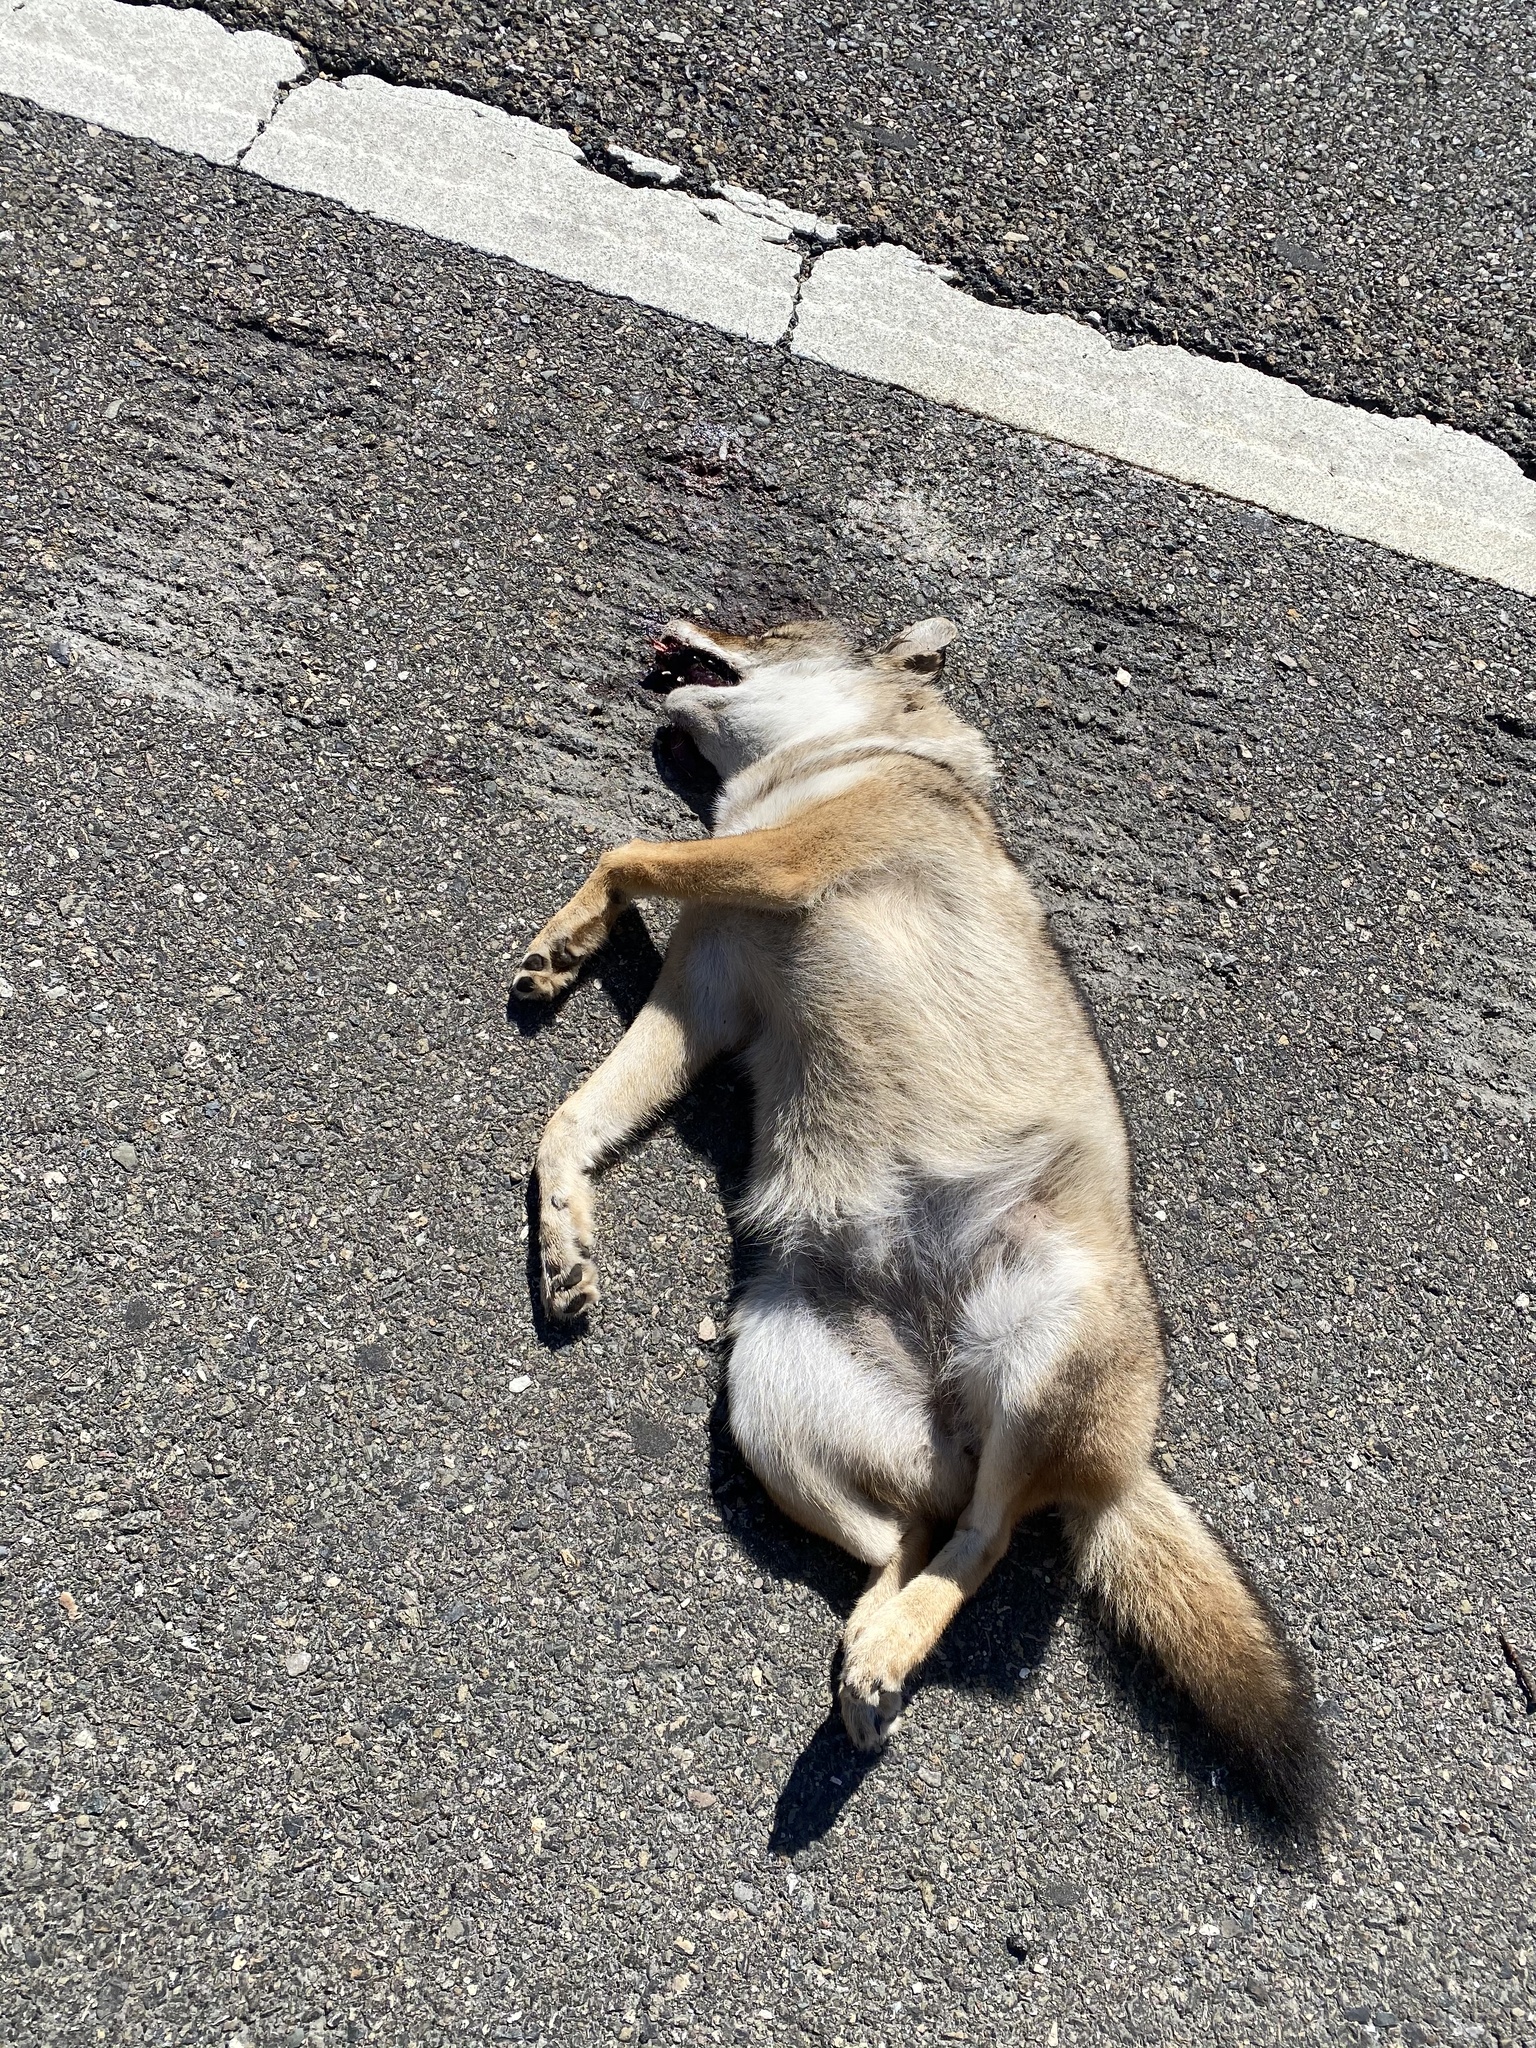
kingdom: Animalia
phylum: Chordata
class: Mammalia
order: Carnivora
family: Canidae
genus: Canis
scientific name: Canis latrans
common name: Coyote
